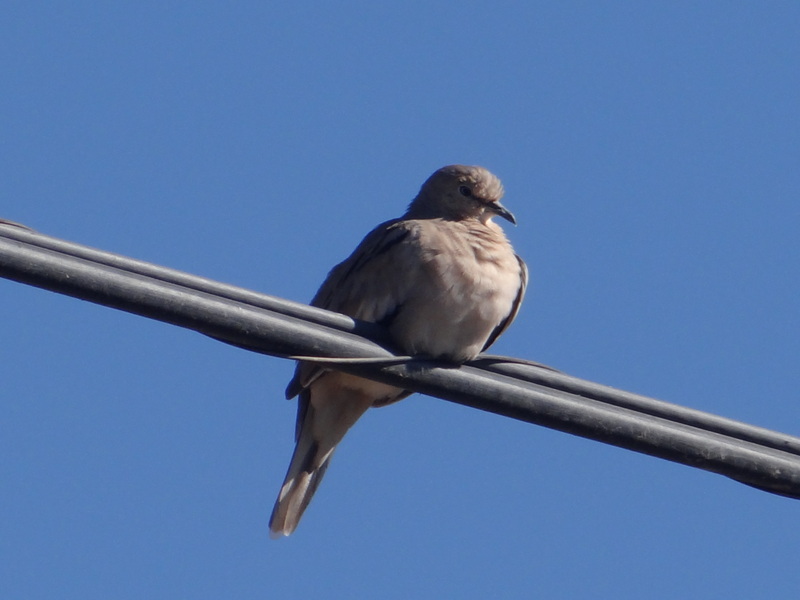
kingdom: Animalia
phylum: Chordata
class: Aves
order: Columbiformes
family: Columbidae
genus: Columbina
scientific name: Columbina picui
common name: Picui ground dove
